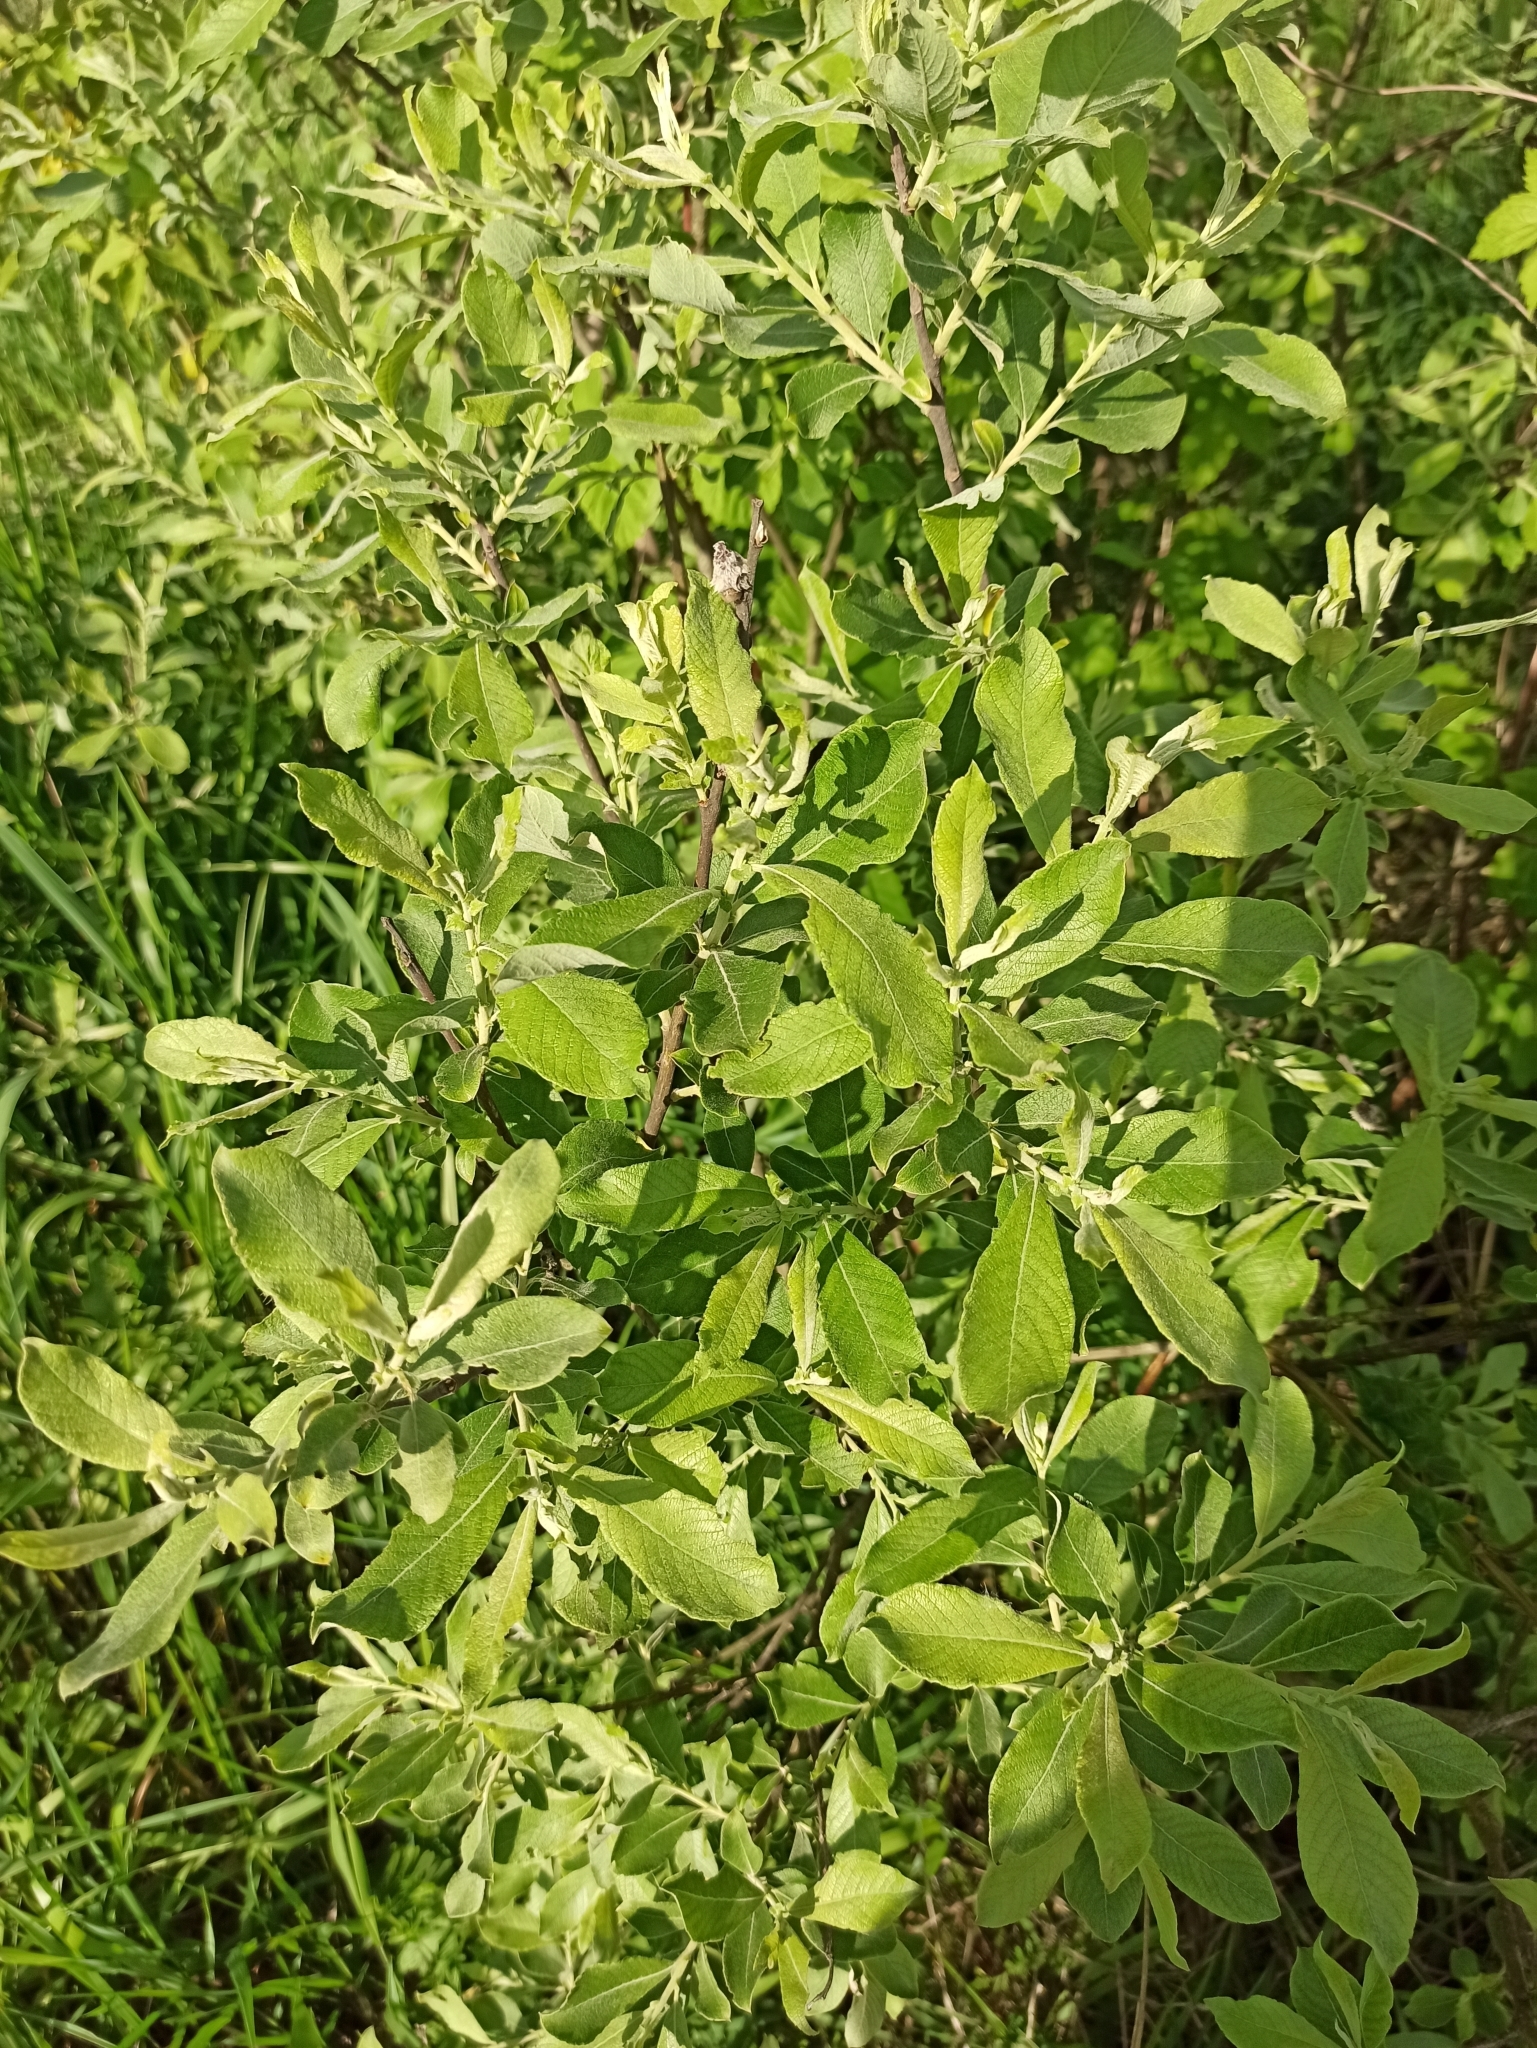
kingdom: Plantae
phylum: Tracheophyta
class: Magnoliopsida
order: Malpighiales
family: Salicaceae
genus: Salix
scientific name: Salix cinerea
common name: Common sallow
